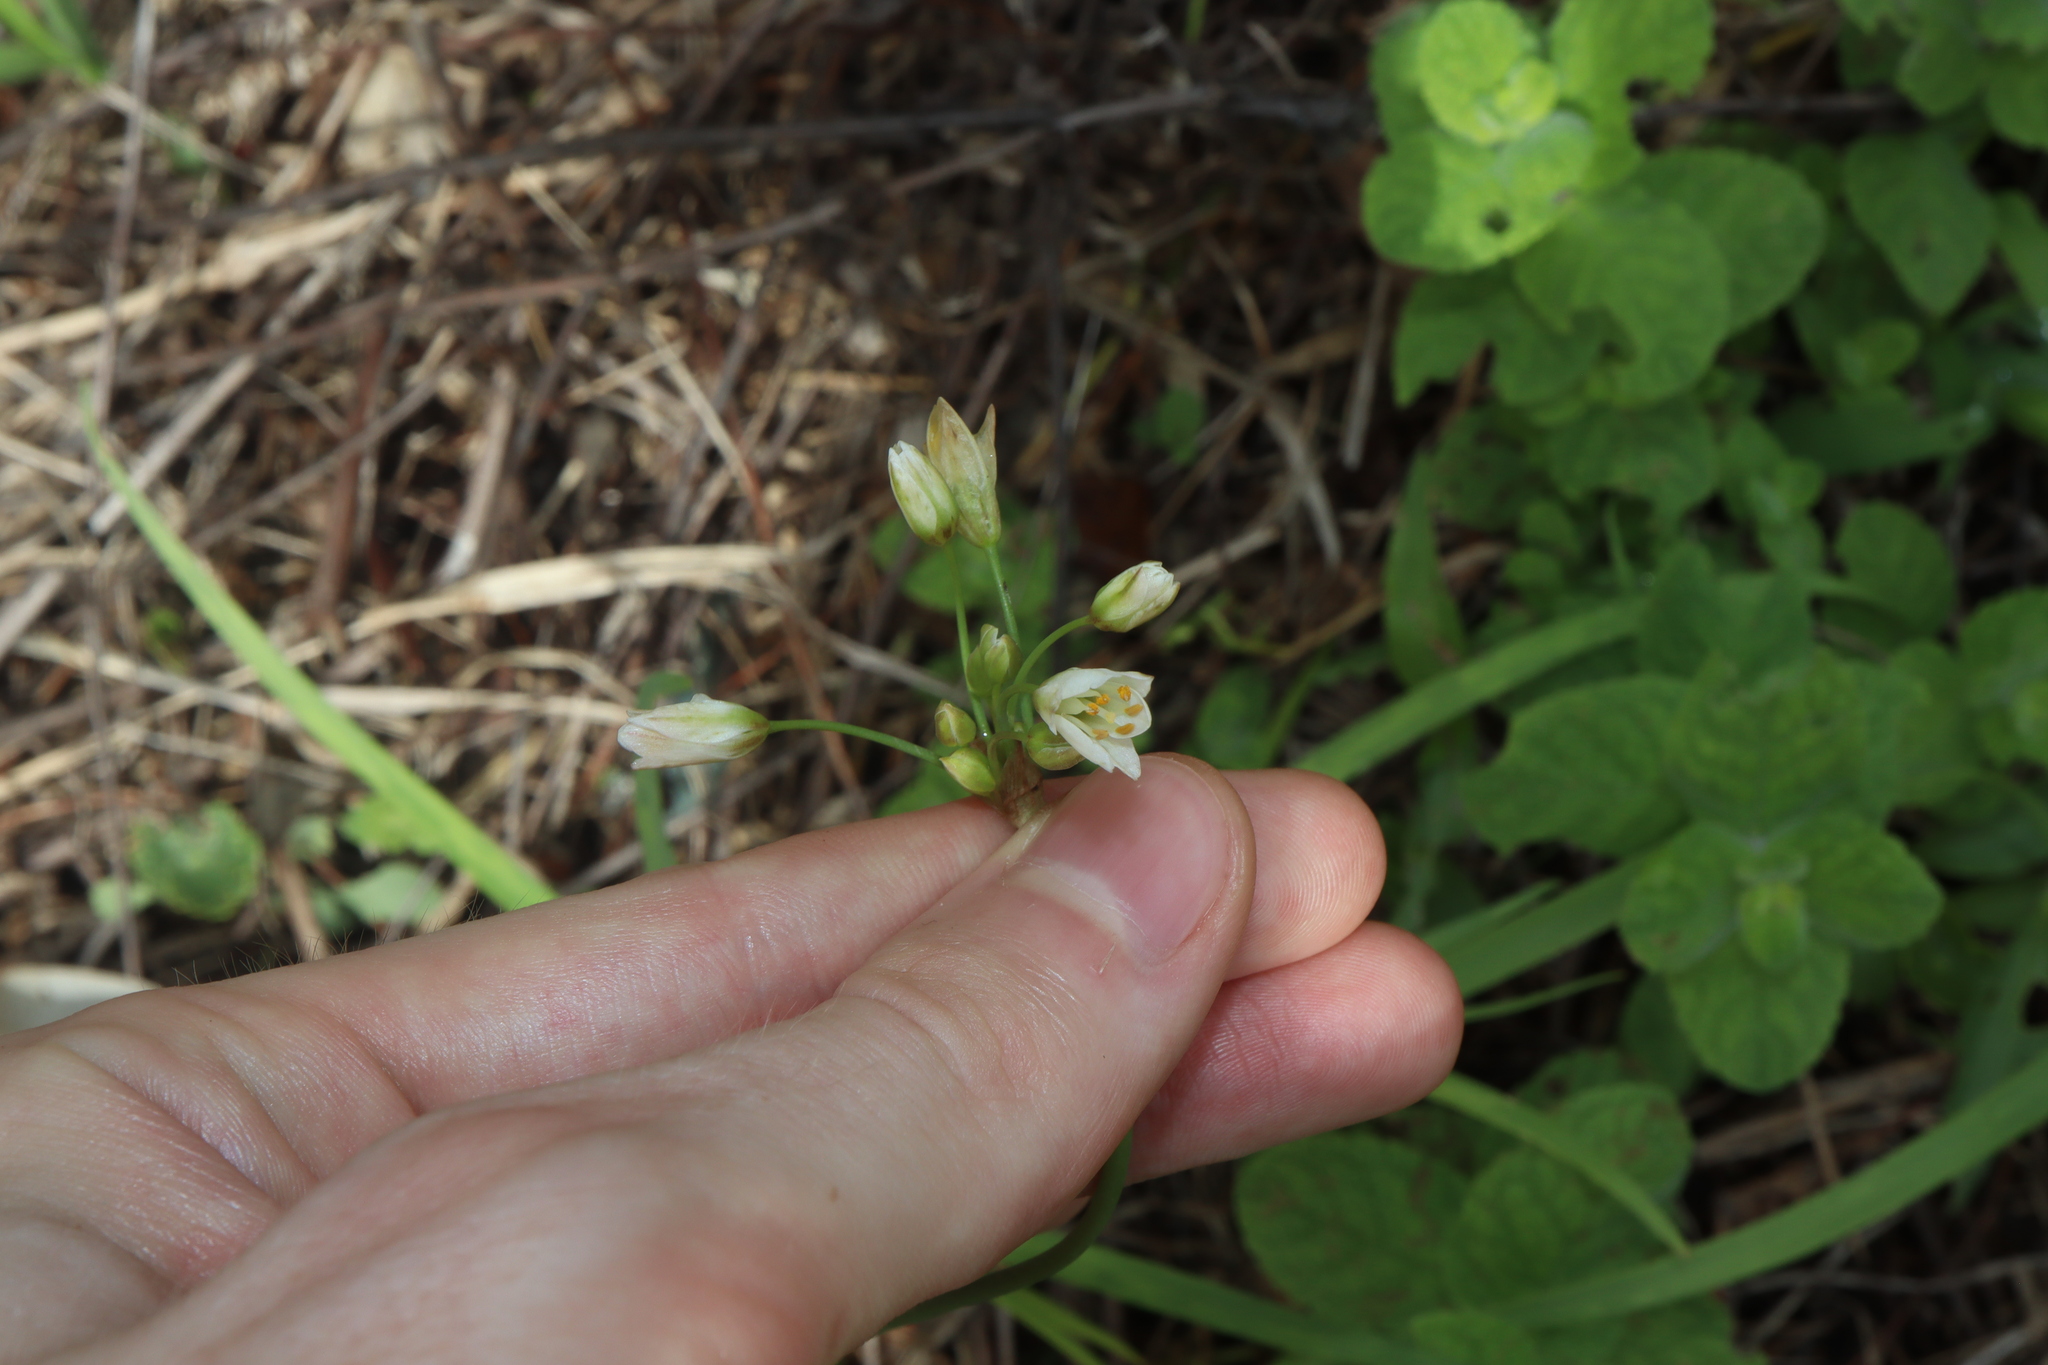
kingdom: Plantae
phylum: Tracheophyta
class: Liliopsida
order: Asparagales
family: Amaryllidaceae
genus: Nothoscordum
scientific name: Nothoscordum gracile
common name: Slender false garlic
